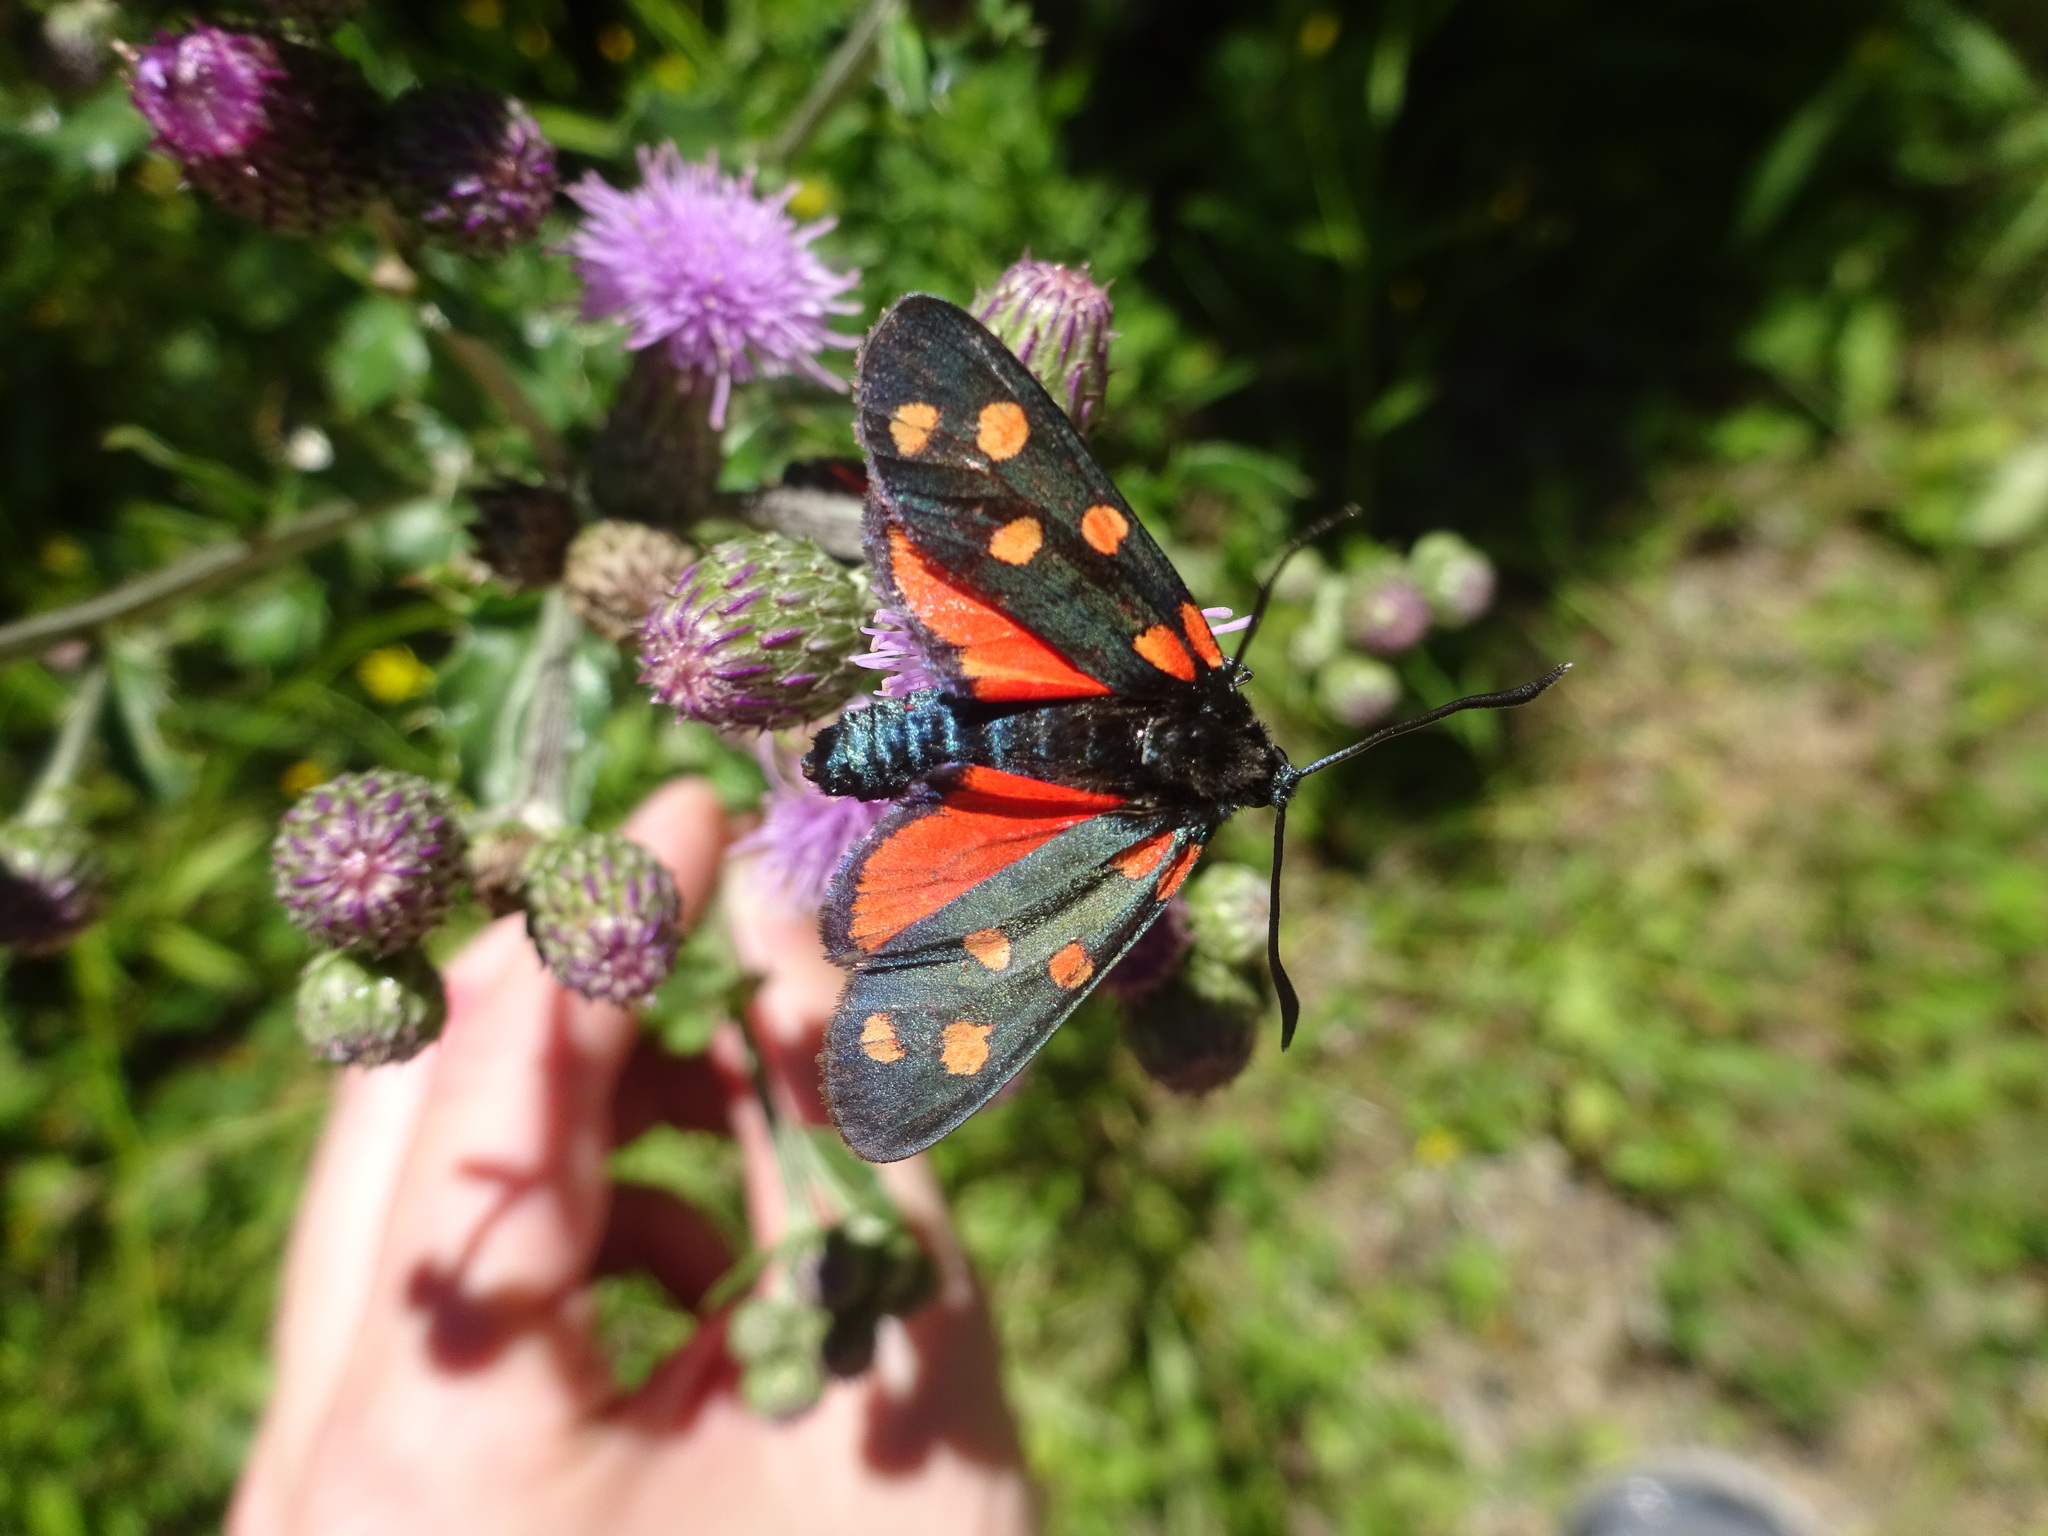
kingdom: Animalia
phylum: Arthropoda
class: Insecta
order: Lepidoptera
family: Zygaenidae
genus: Zygaena
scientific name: Zygaena transalpina
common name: Southern six spot burnet
